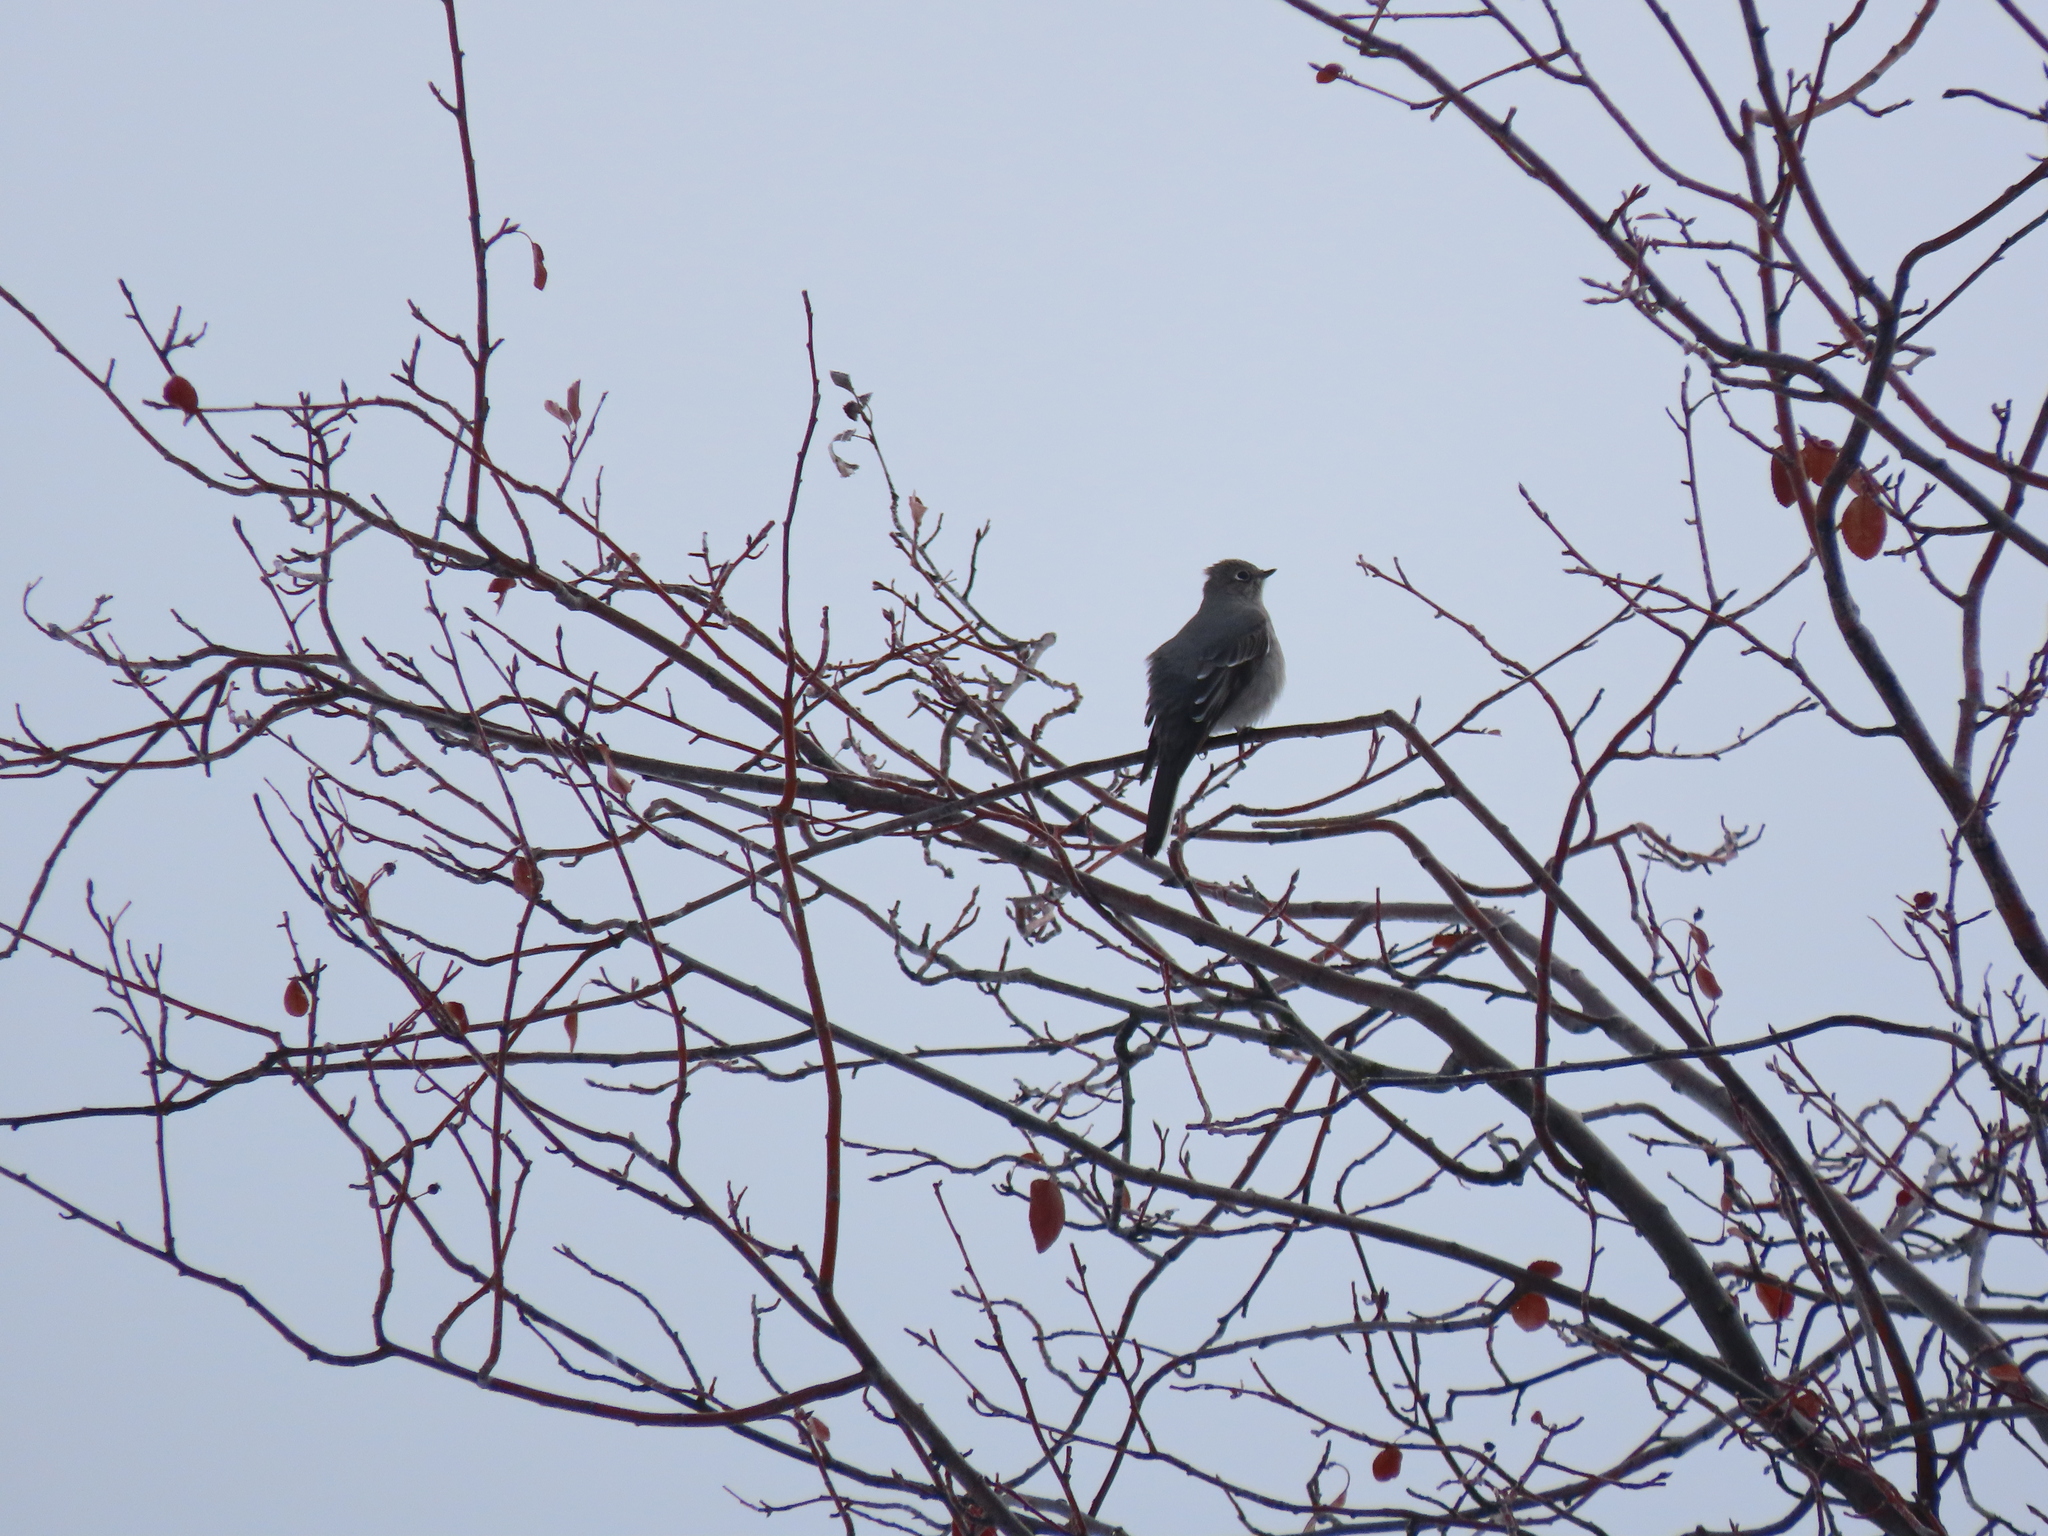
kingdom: Animalia
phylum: Chordata
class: Aves
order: Passeriformes
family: Turdidae
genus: Myadestes
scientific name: Myadestes townsendi
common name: Townsend's solitaire
